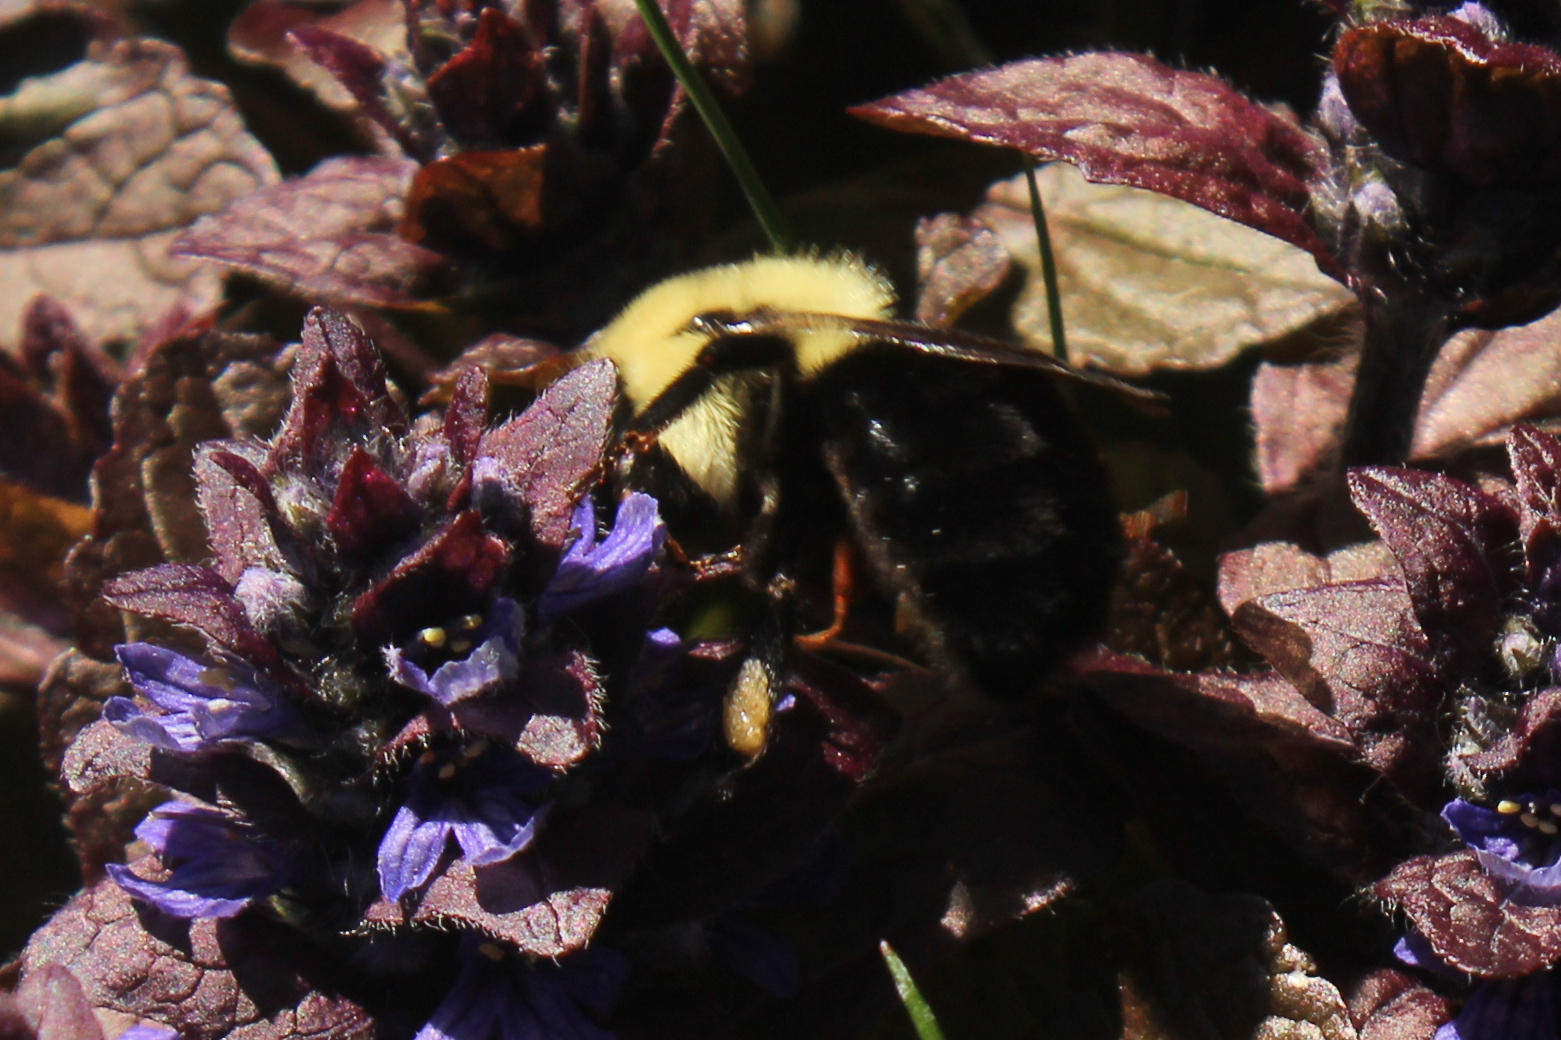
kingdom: Animalia
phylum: Arthropoda
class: Insecta
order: Hymenoptera
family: Apidae
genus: Bombus
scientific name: Bombus impatiens
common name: Common eastern bumble bee
